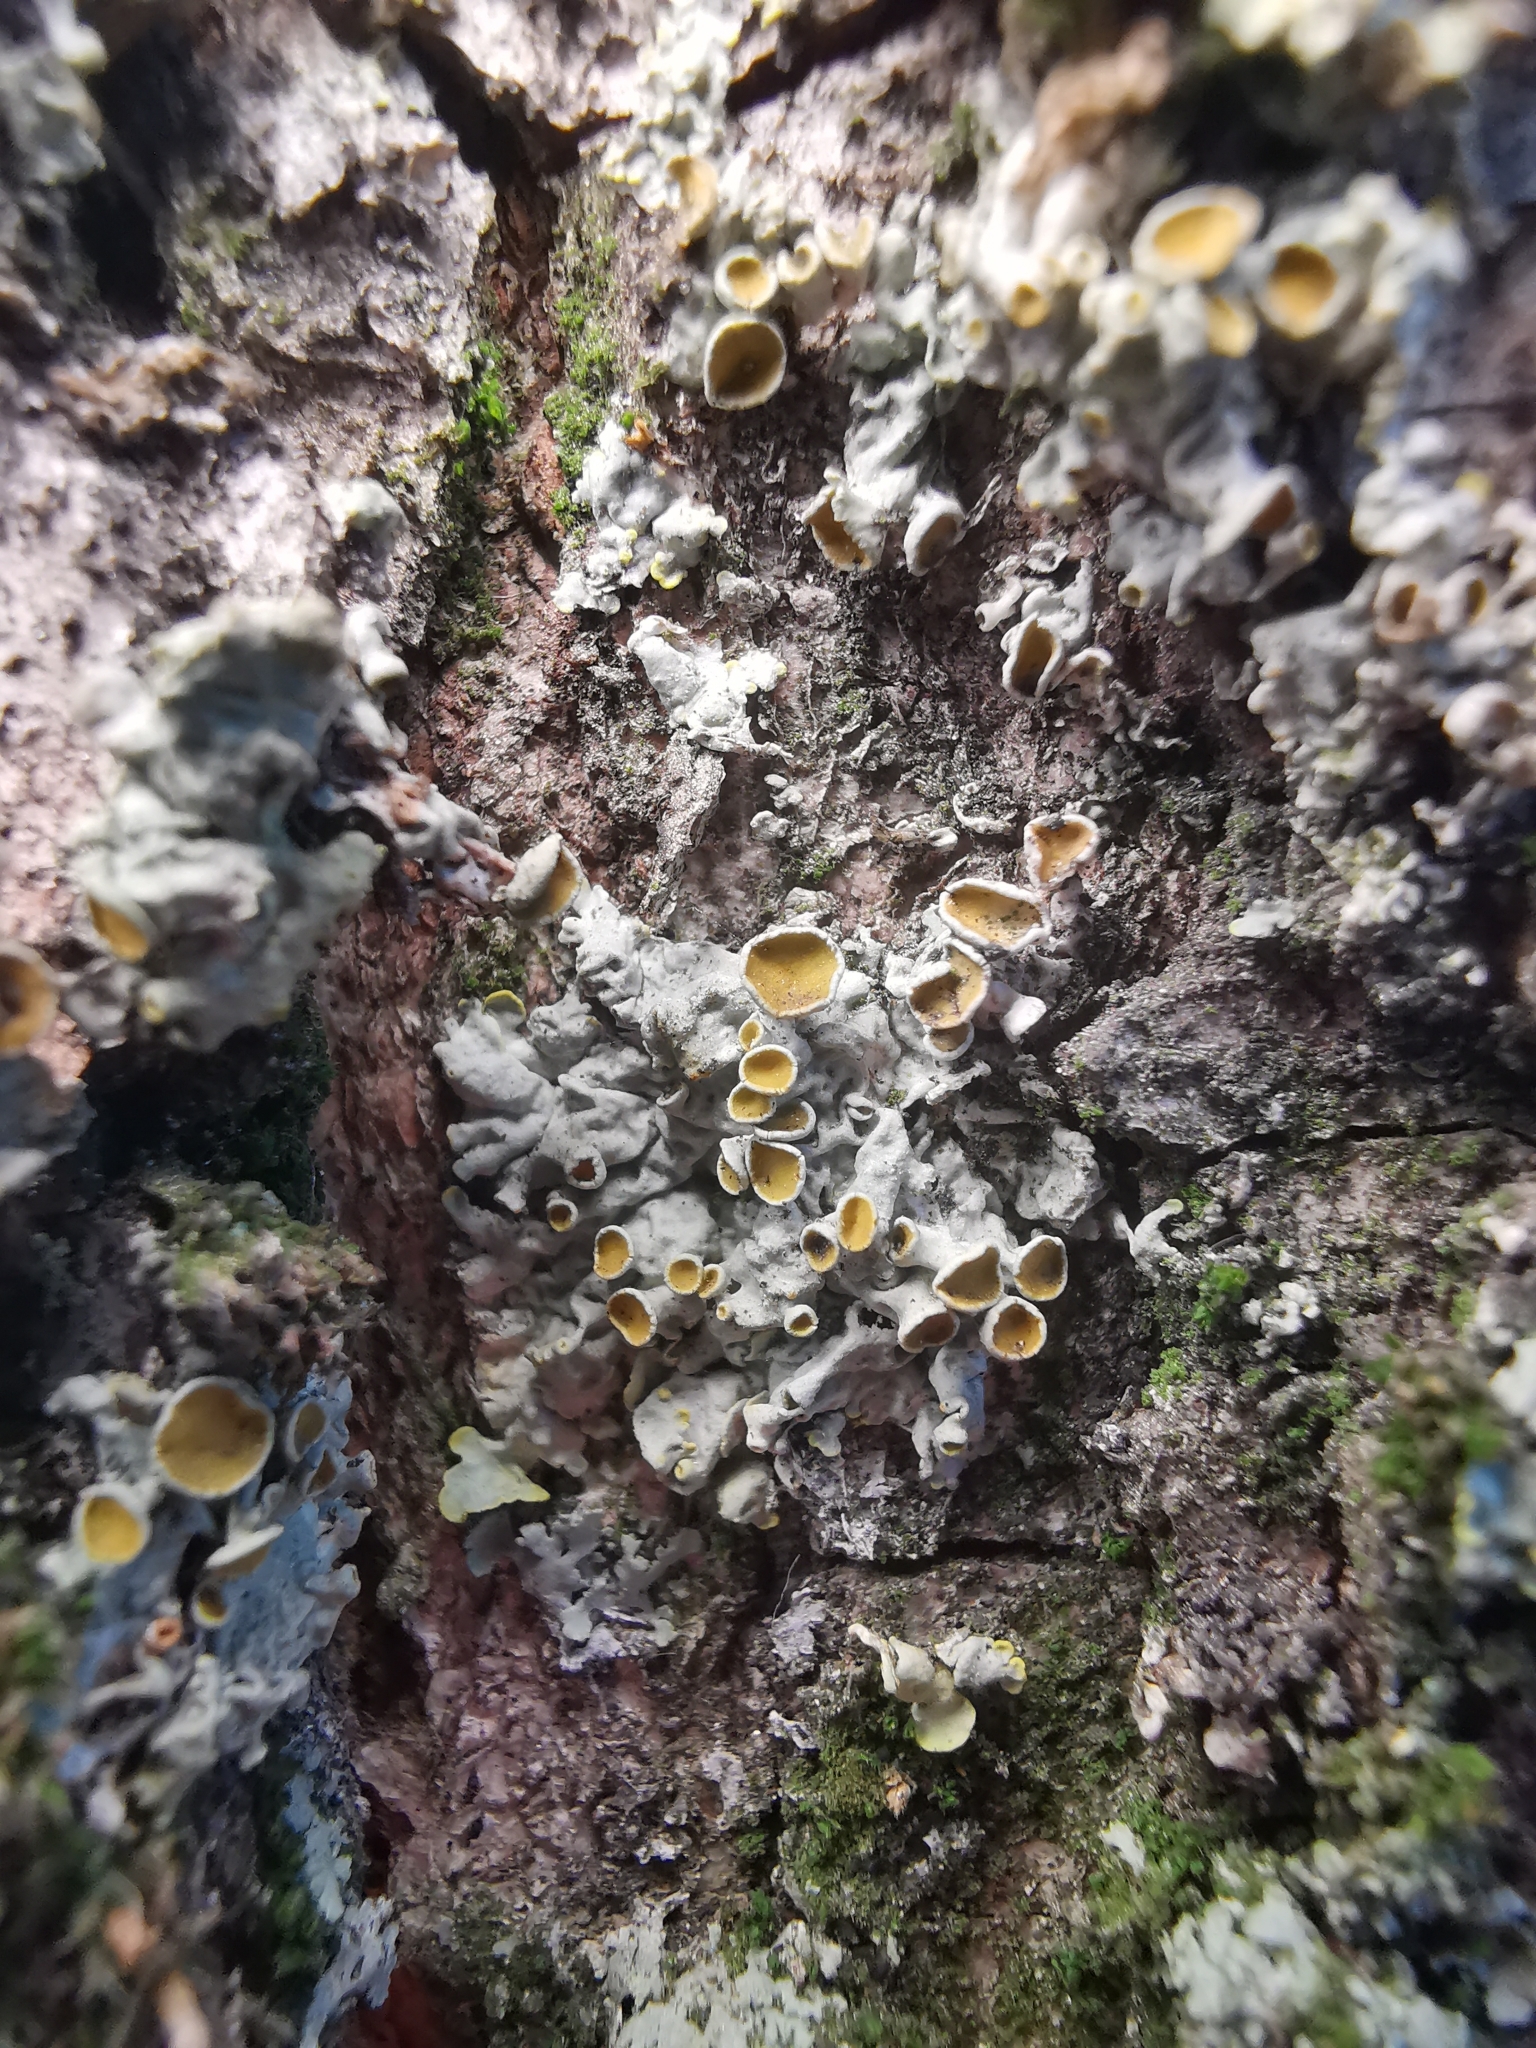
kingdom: Fungi
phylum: Ascomycota
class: Lecanoromycetes
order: Teloschistales
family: Teloschistaceae
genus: Xanthoria
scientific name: Xanthoria parietina
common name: Common orange lichen
